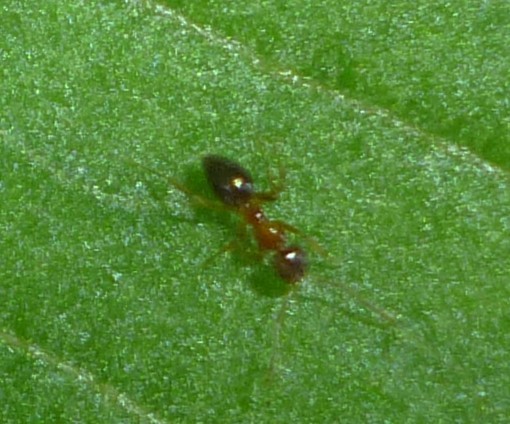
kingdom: Animalia
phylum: Arthropoda
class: Insecta
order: Hymenoptera
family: Formicidae
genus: Paratrechina
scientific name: Paratrechina flavipes
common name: Eastern asian formicine ant
